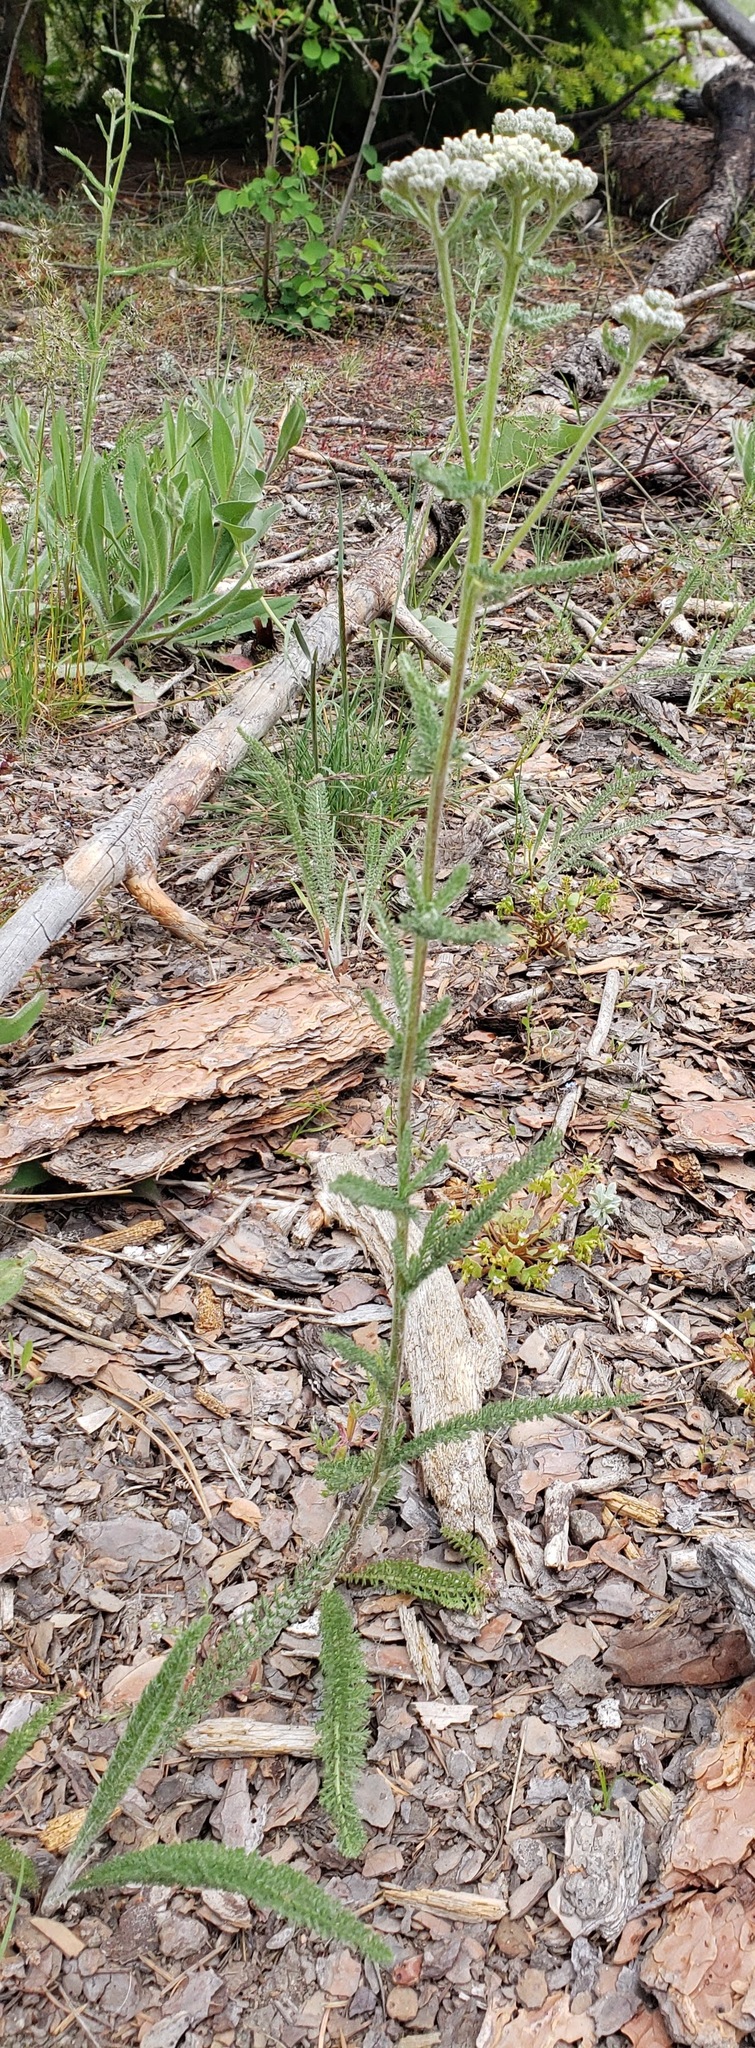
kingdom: Plantae
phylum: Tracheophyta
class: Magnoliopsida
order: Asterales
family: Asteraceae
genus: Achillea
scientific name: Achillea millefolium
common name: Yarrow
